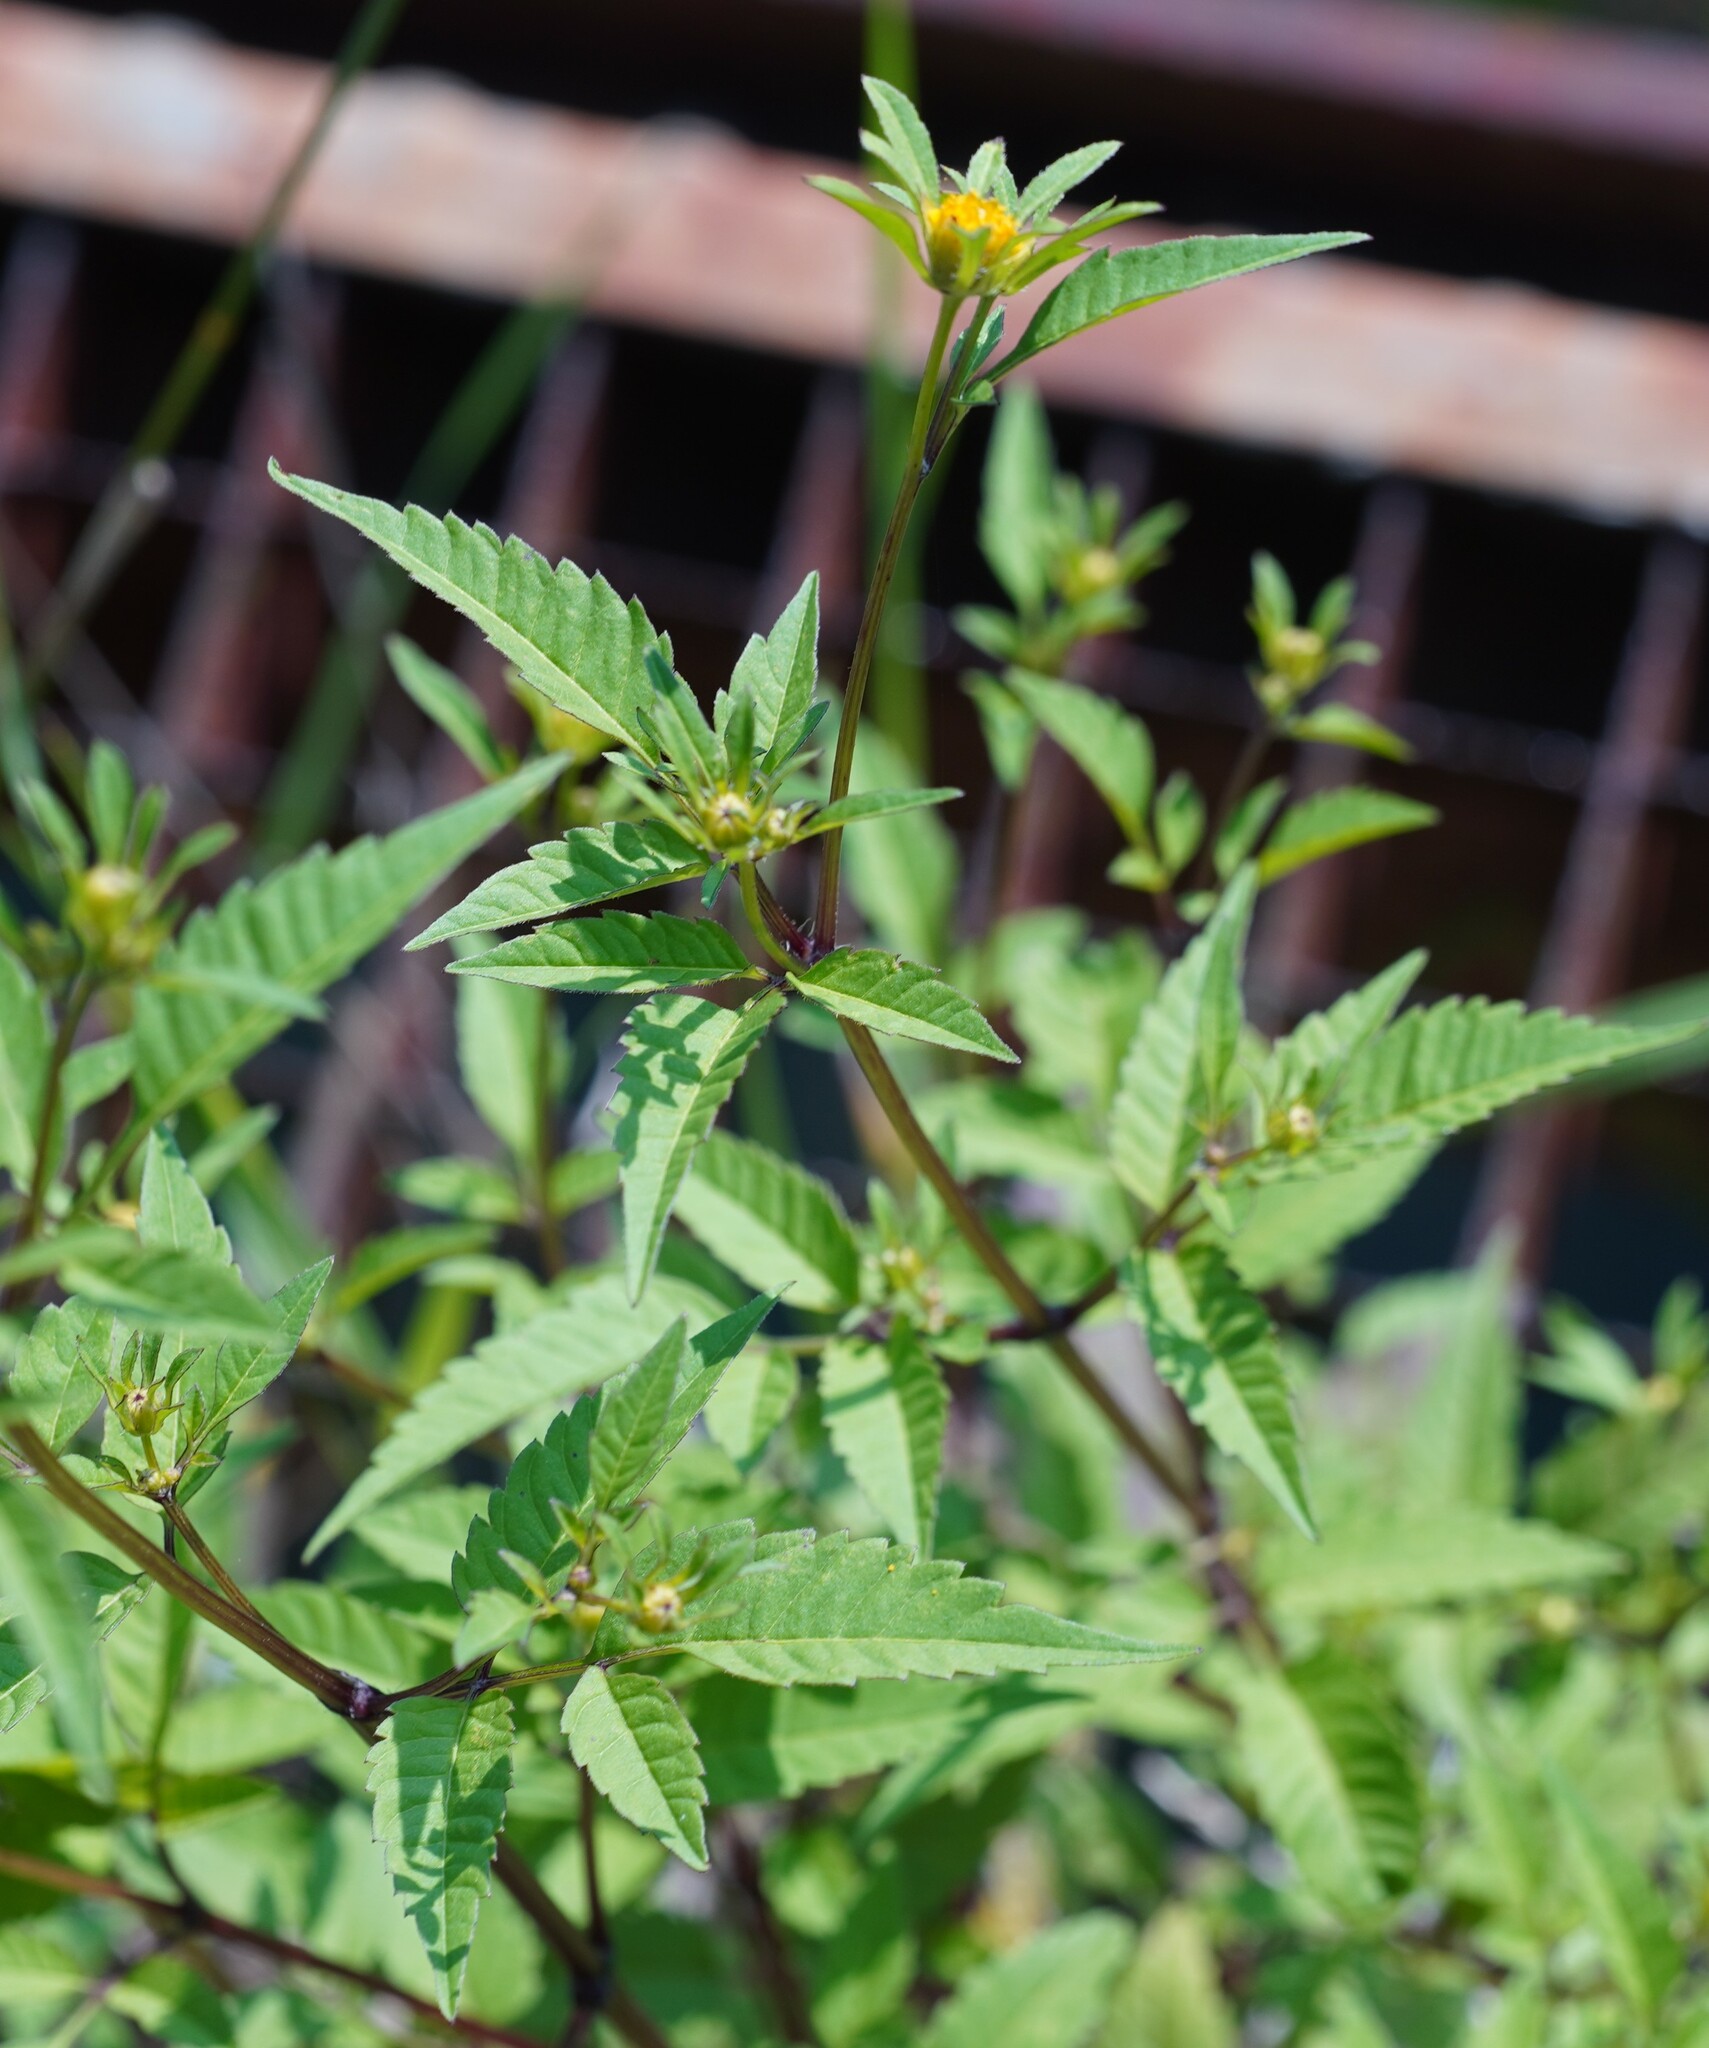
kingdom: Plantae
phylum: Tracheophyta
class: Magnoliopsida
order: Asterales
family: Asteraceae
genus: Bidens
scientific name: Bidens frondosa
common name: Beggarticks
